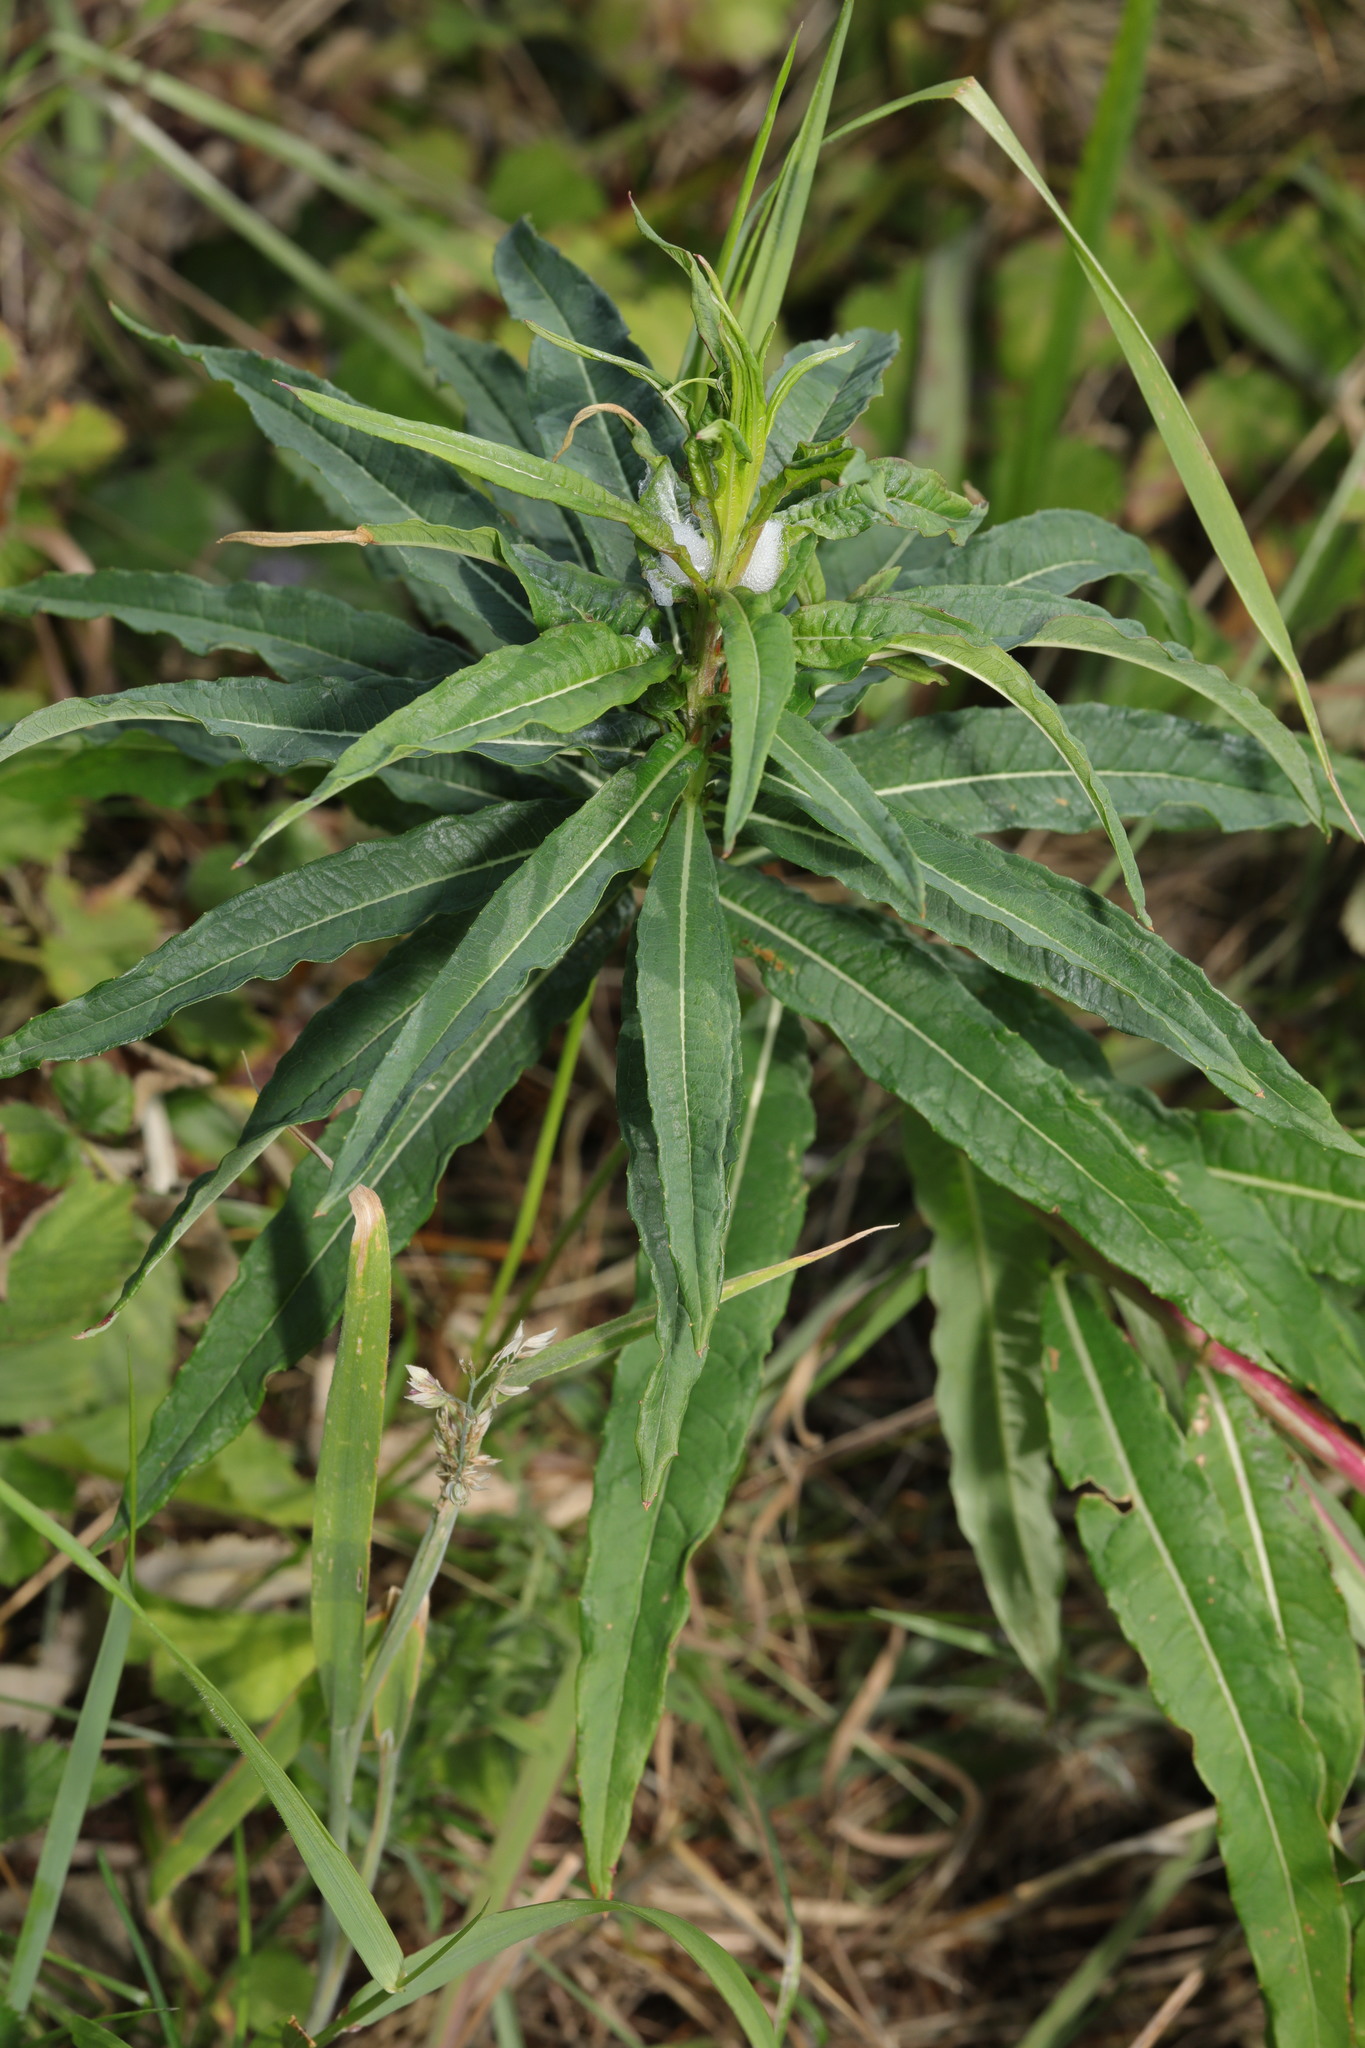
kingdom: Plantae
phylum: Tracheophyta
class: Magnoliopsida
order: Myrtales
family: Onagraceae
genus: Chamaenerion
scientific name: Chamaenerion angustifolium
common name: Fireweed
